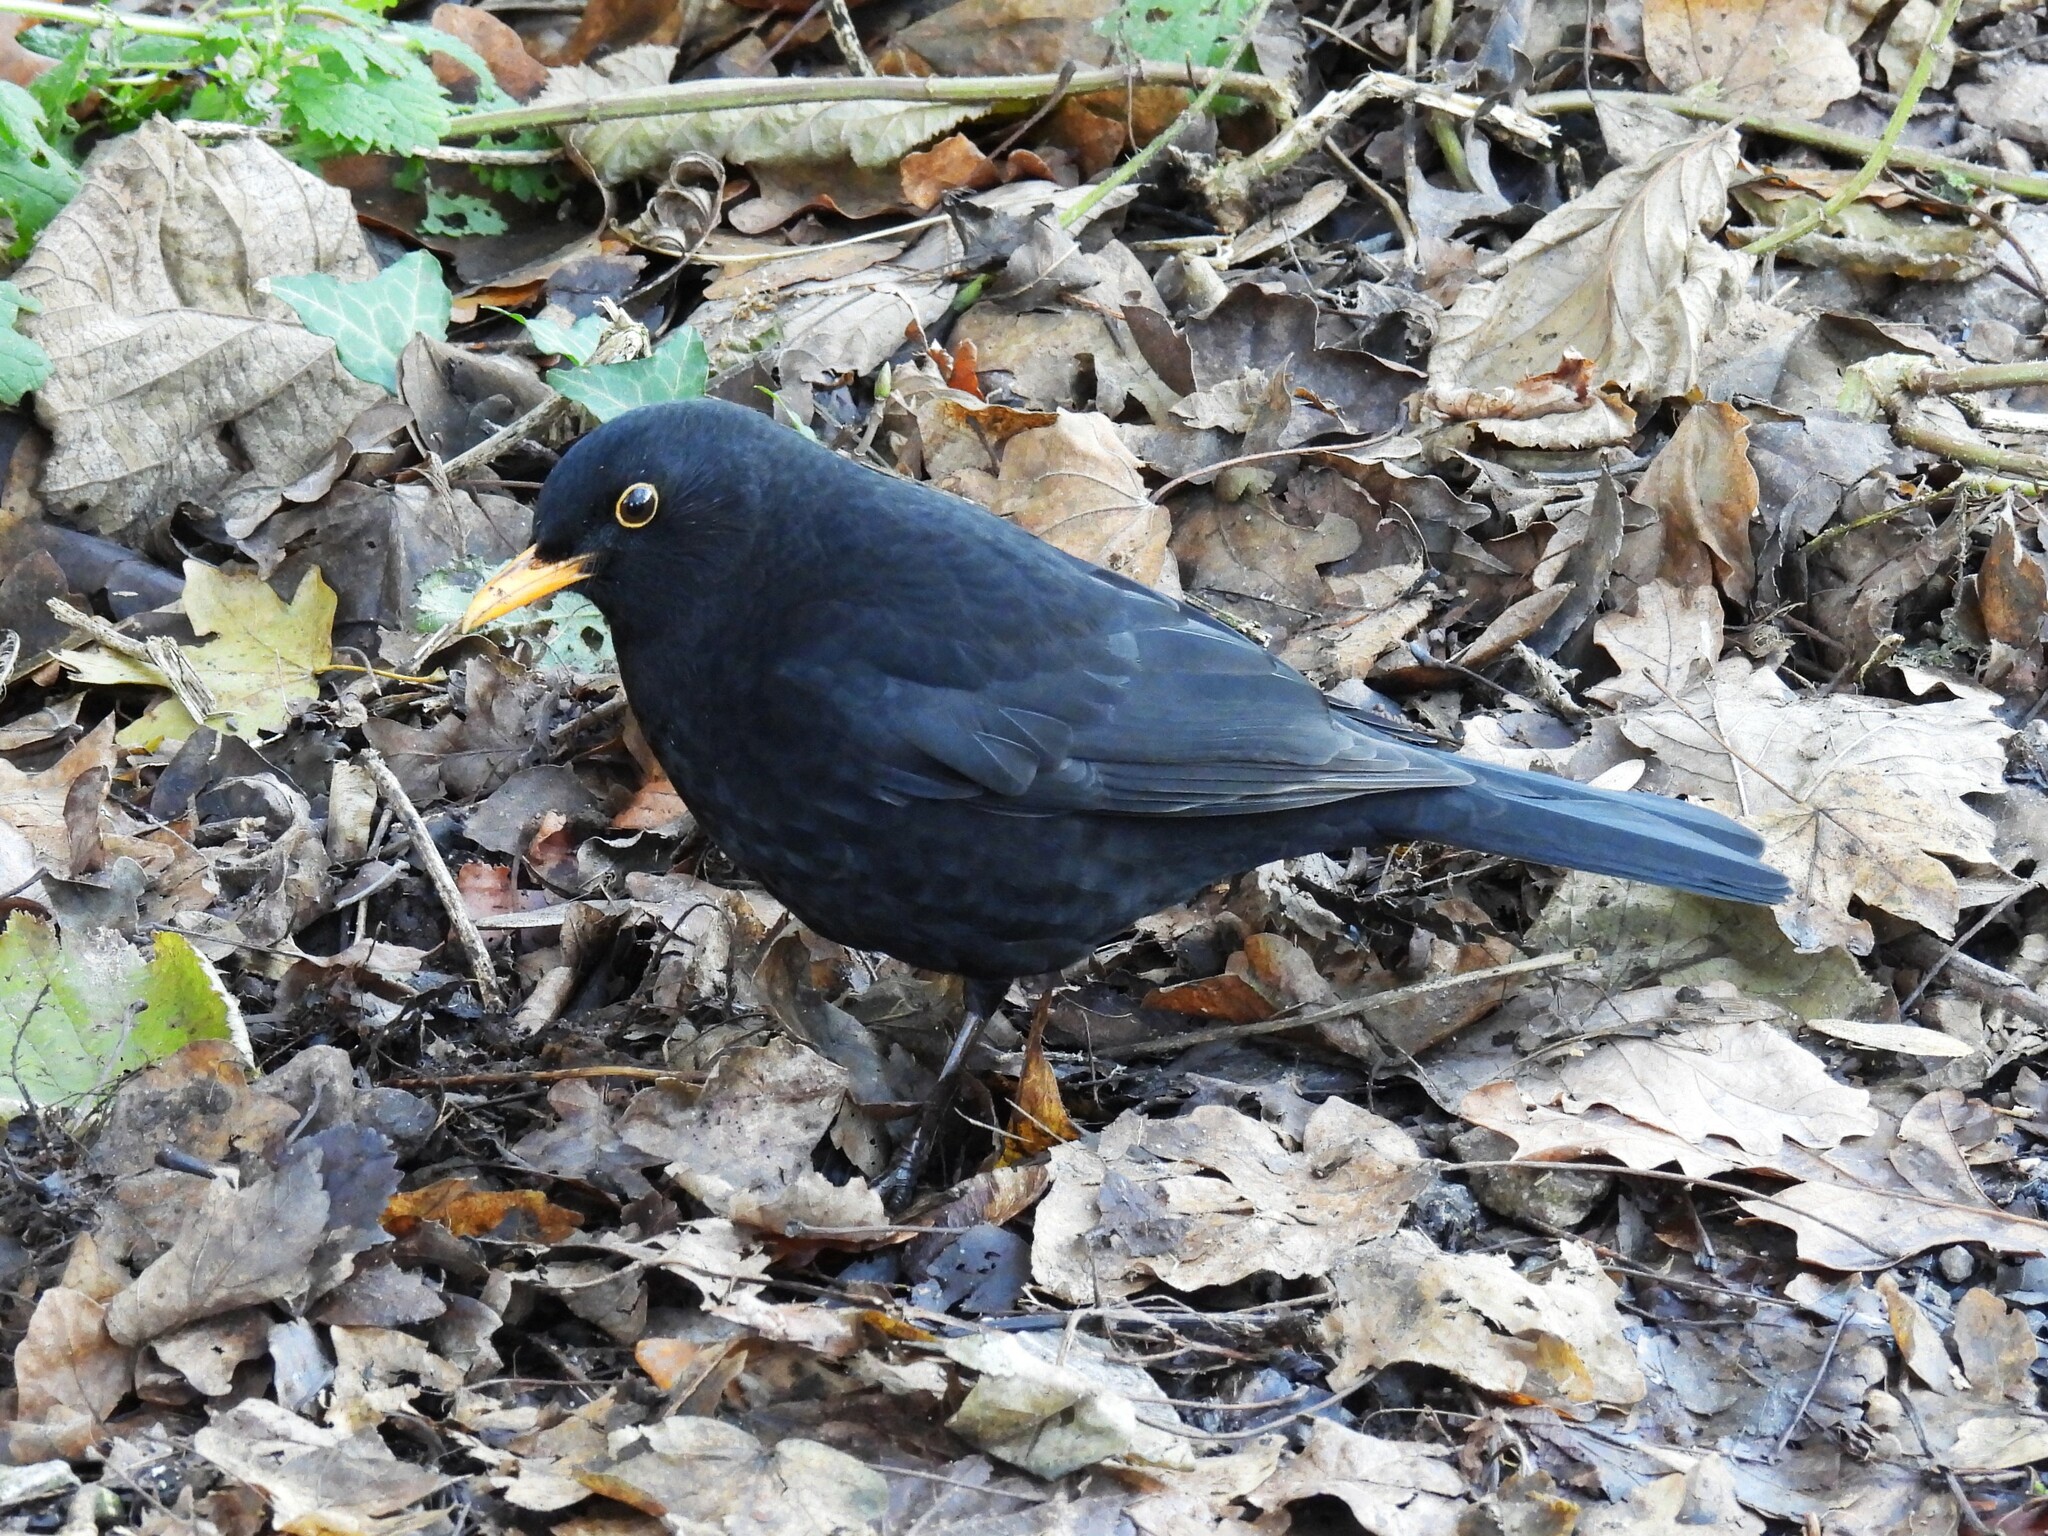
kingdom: Animalia
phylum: Chordata
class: Aves
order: Passeriformes
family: Turdidae
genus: Turdus
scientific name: Turdus merula
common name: Common blackbird
